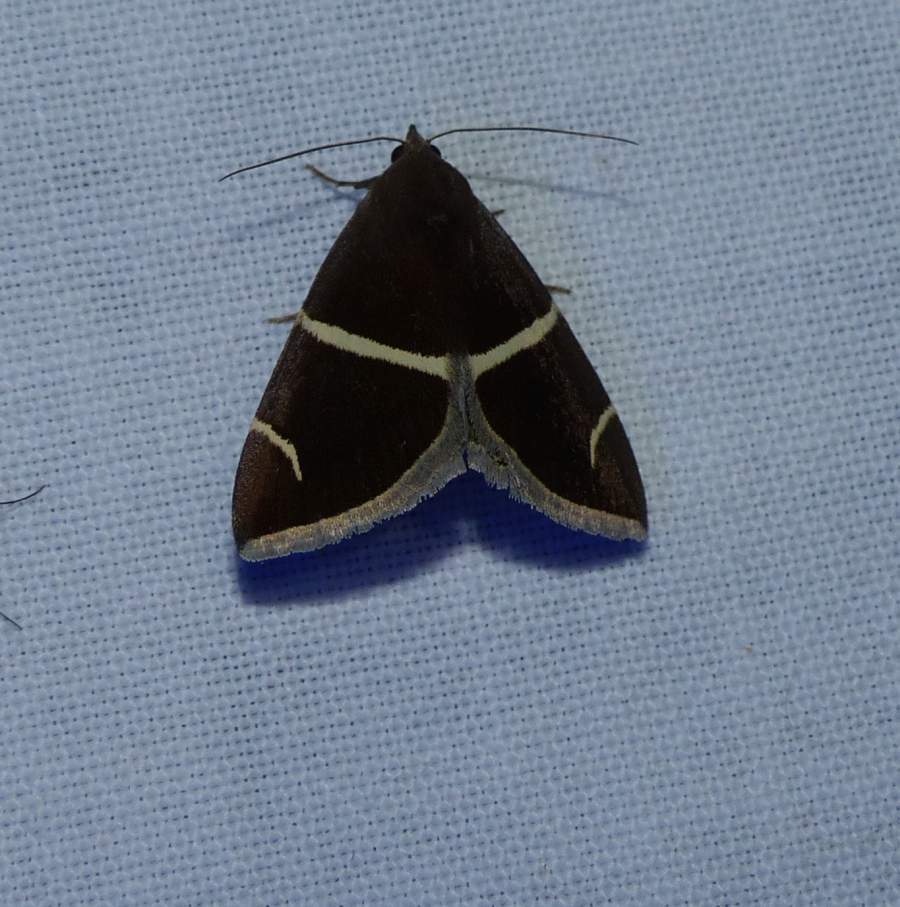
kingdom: Animalia
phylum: Arthropoda
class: Insecta
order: Lepidoptera
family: Erebidae
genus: Argyrostrotis
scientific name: Argyrostrotis anilis
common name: Short-lined chocolate
